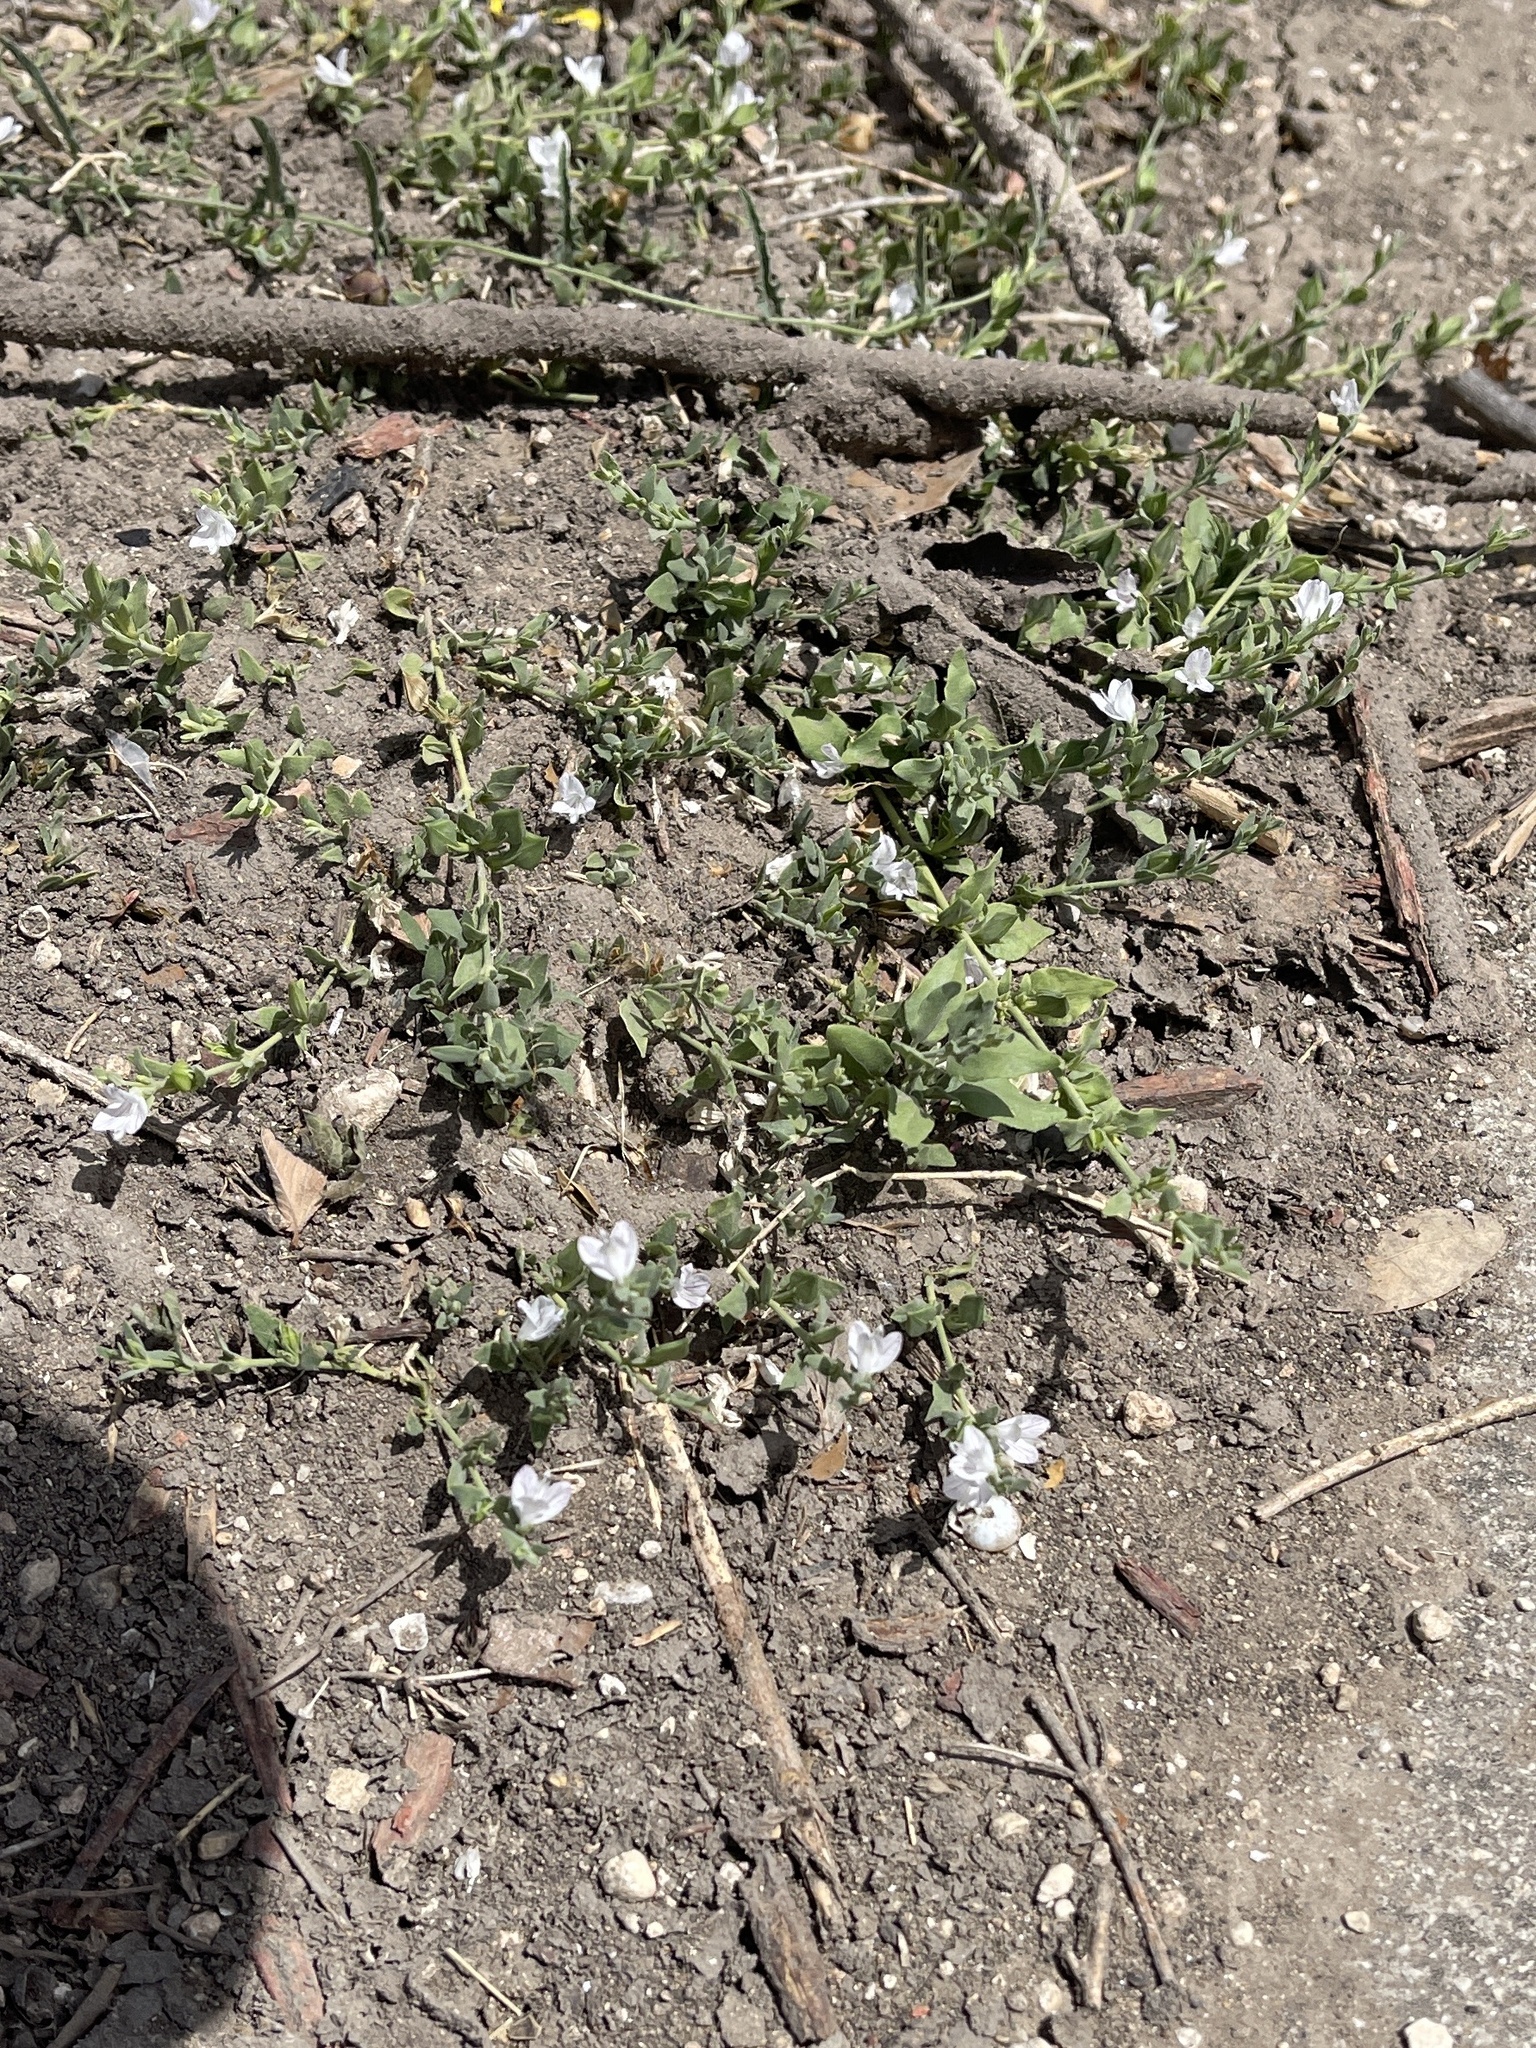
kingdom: Plantae
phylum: Tracheophyta
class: Magnoliopsida
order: Lamiales
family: Acanthaceae
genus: Carlowrightia
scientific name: Carlowrightia texana
